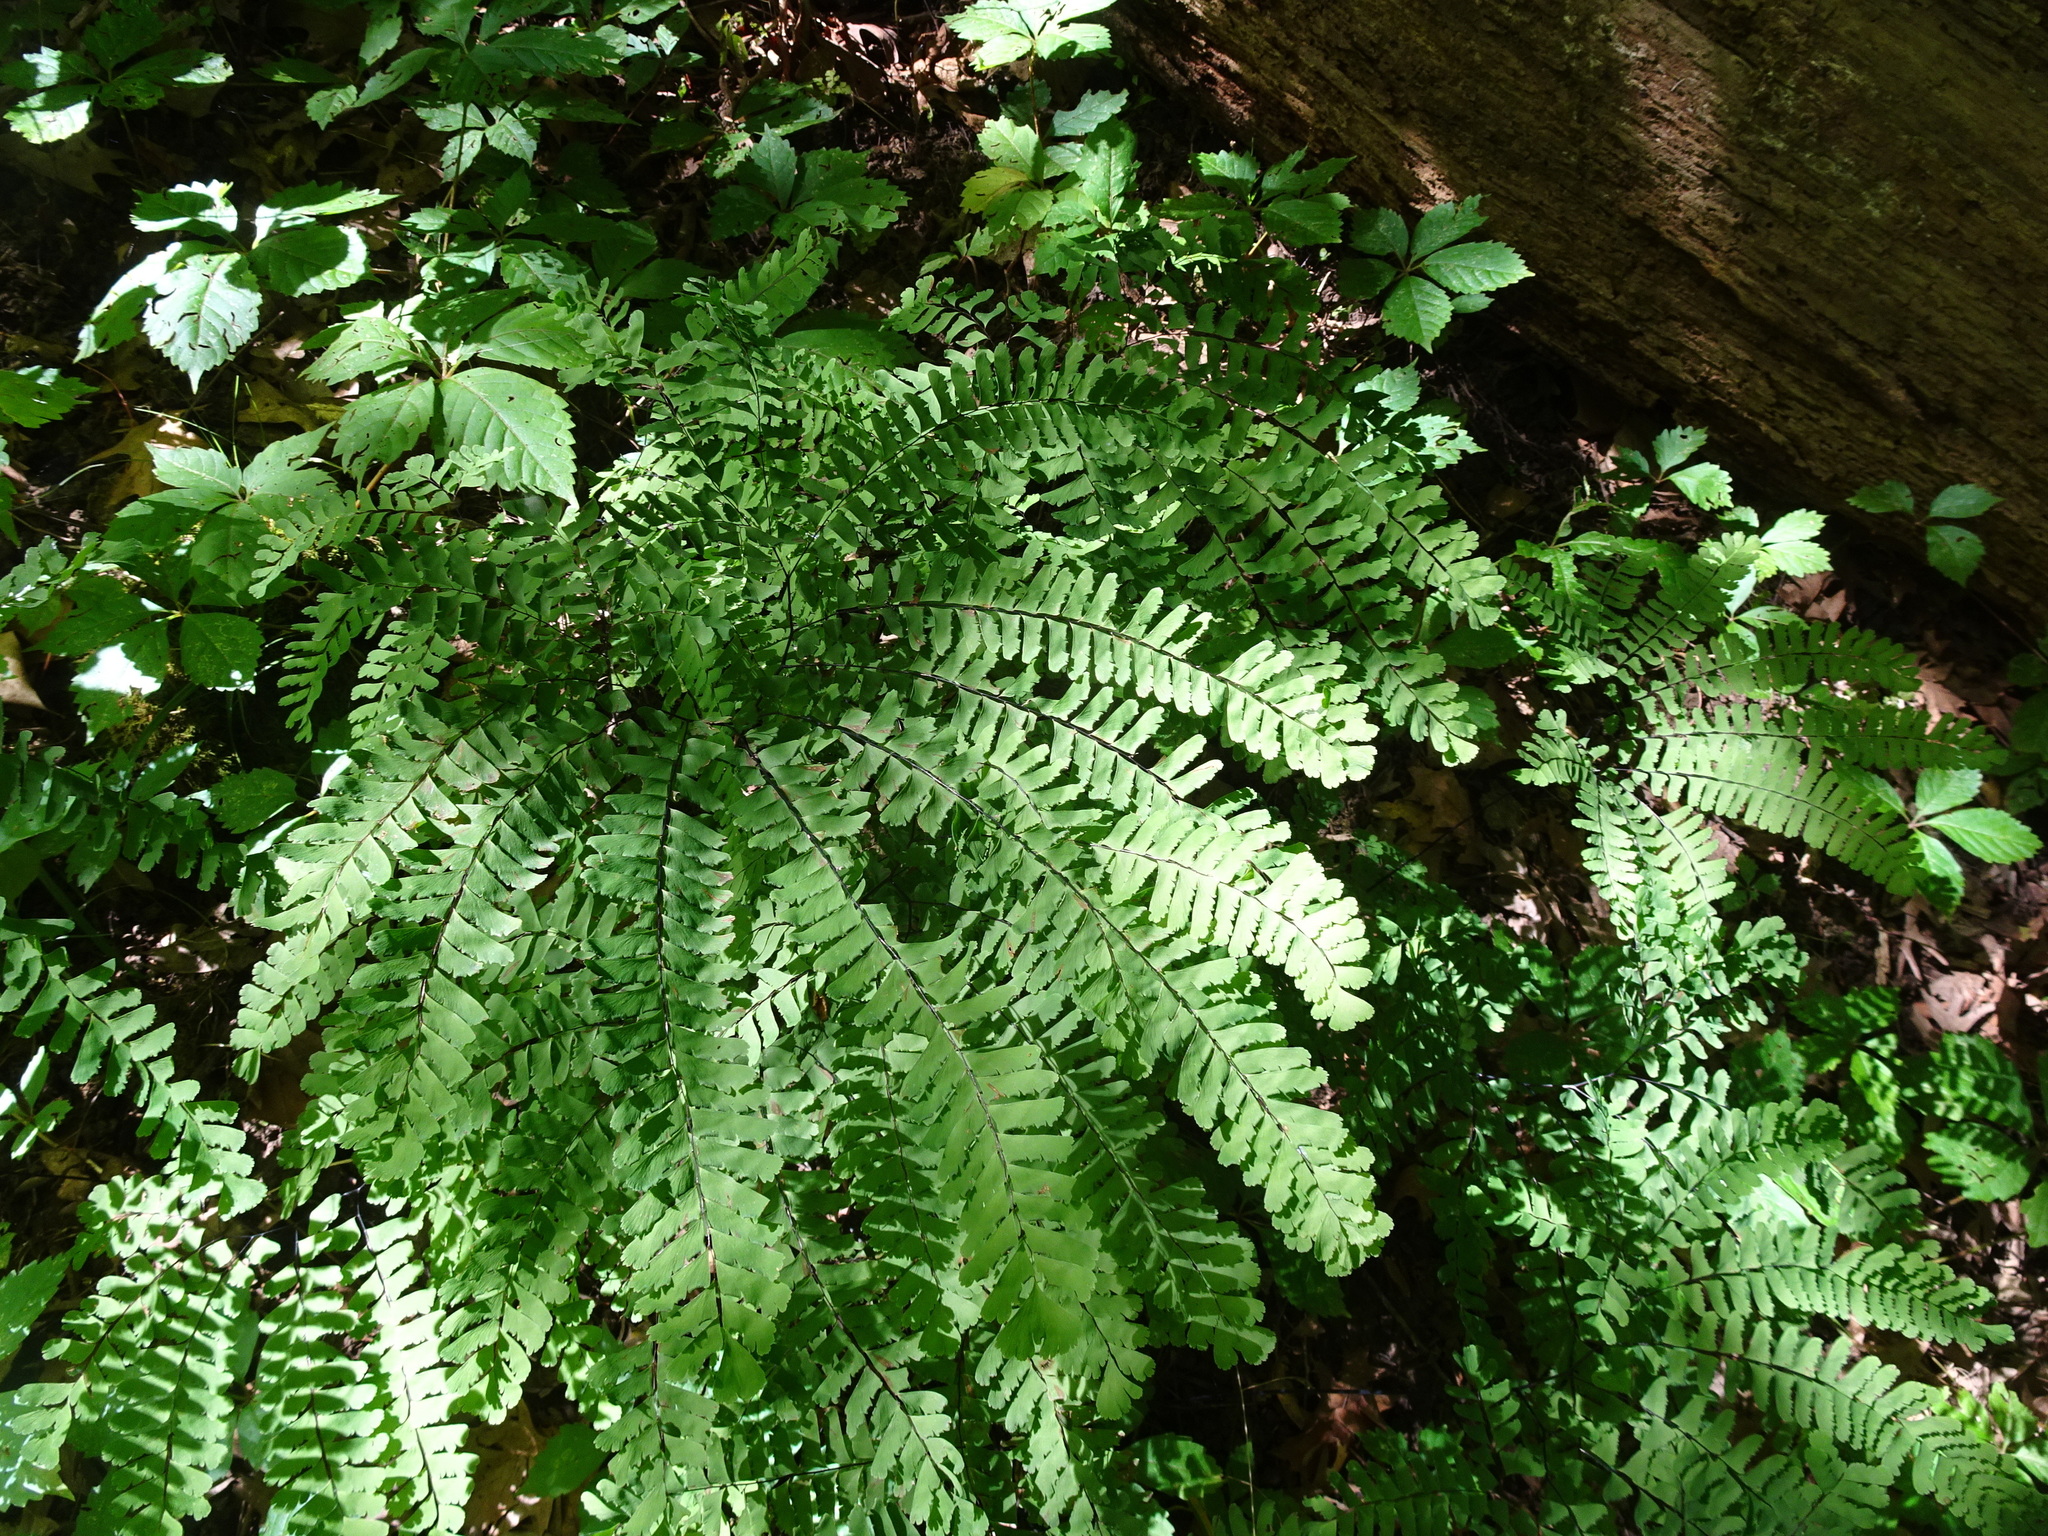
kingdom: Plantae
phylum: Tracheophyta
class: Polypodiopsida
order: Polypodiales
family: Pteridaceae
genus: Adiantum
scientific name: Adiantum pedatum
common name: Five-finger fern
